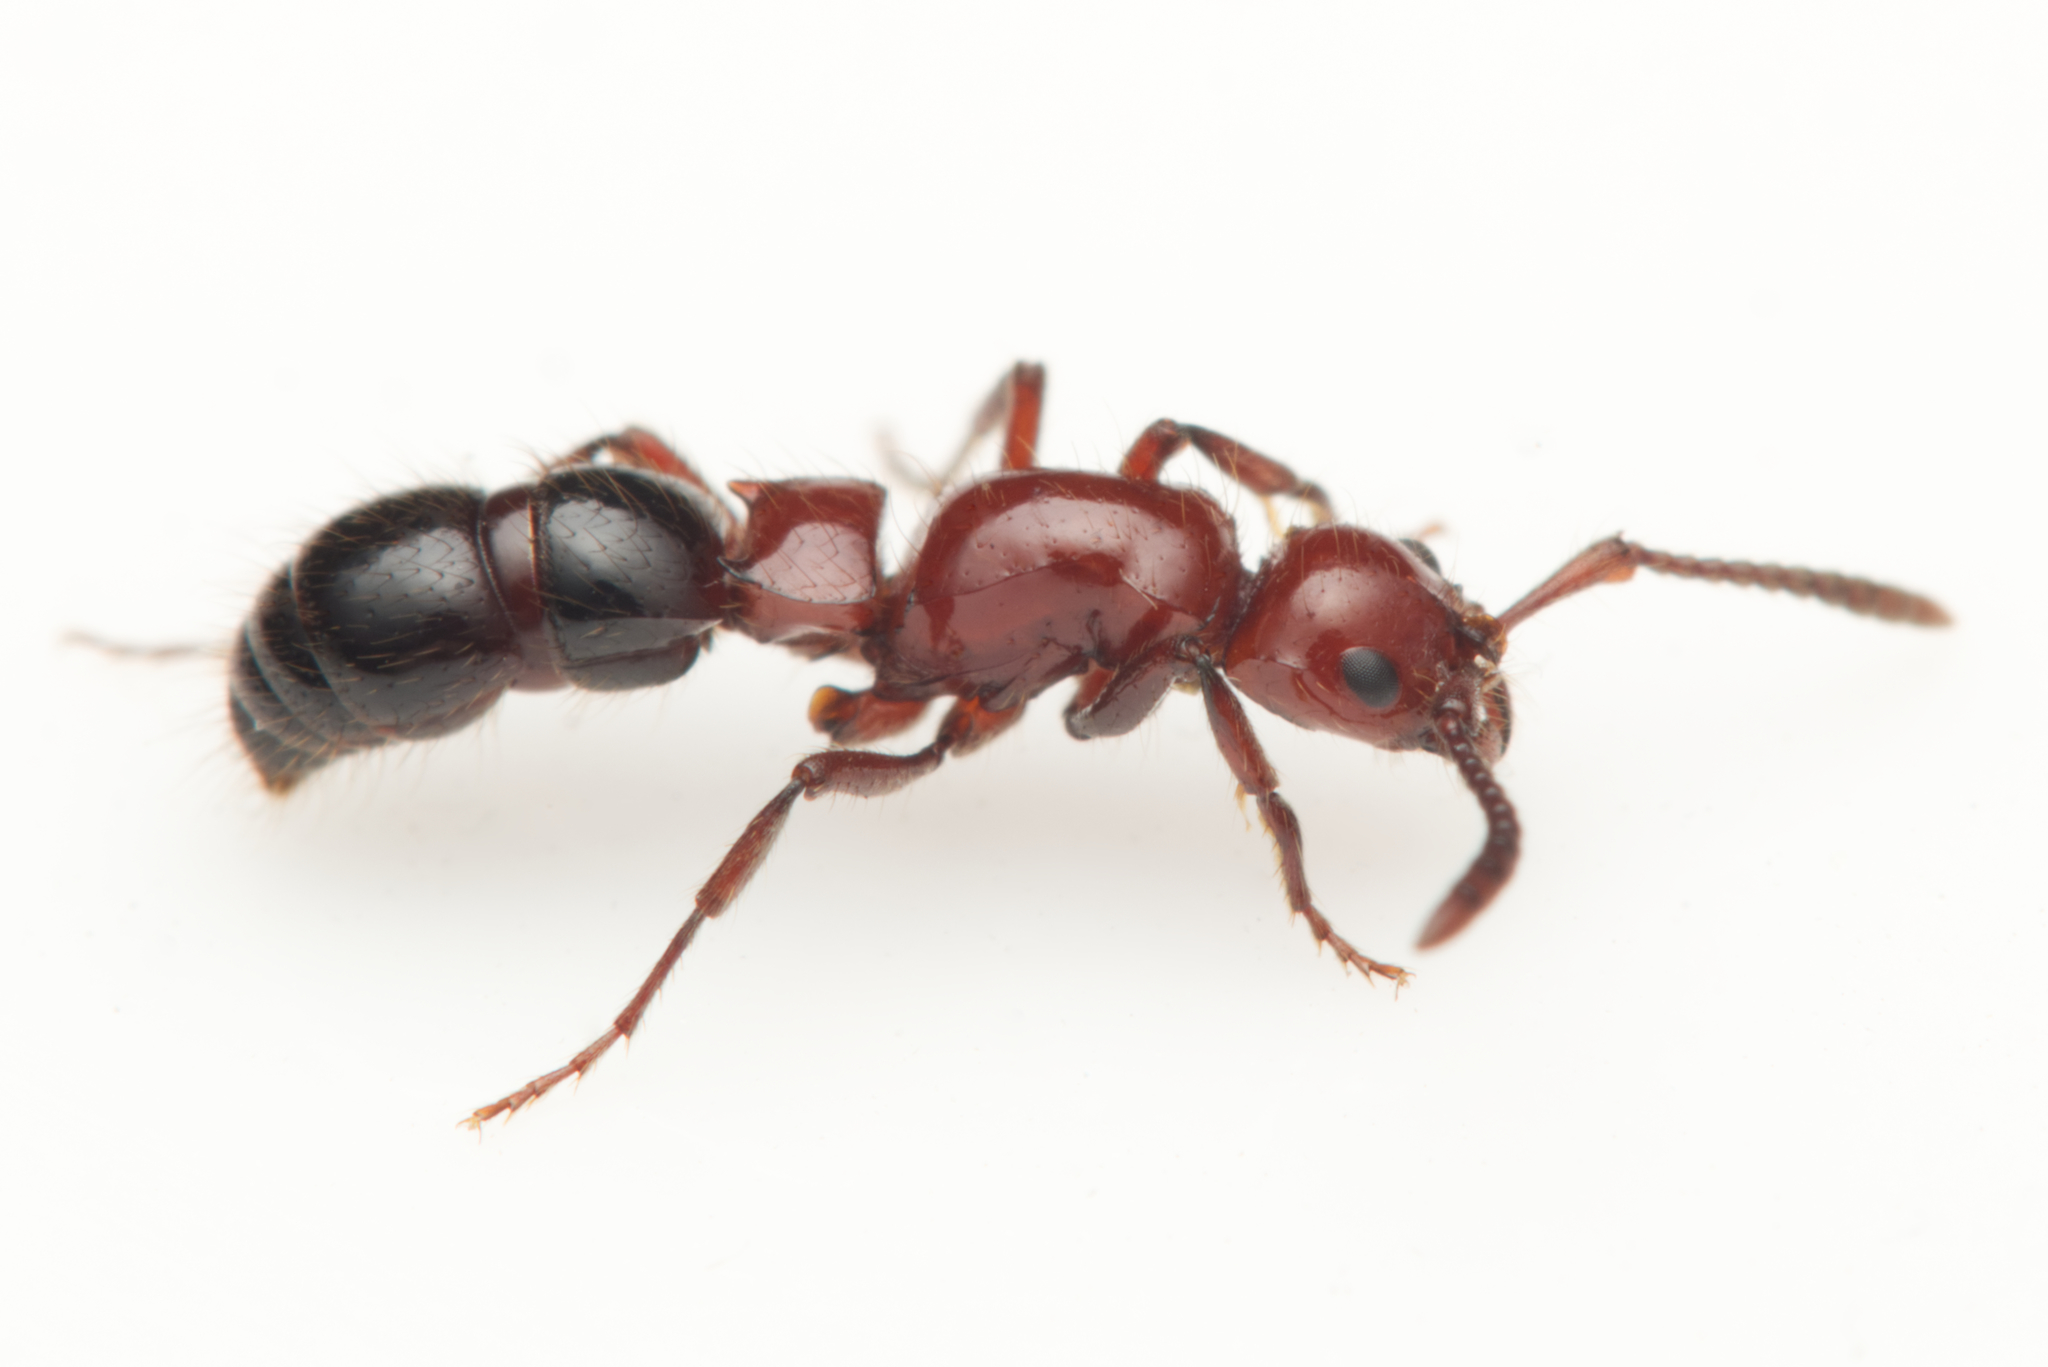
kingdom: Animalia
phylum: Arthropoda
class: Insecta
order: Hymenoptera
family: Formicidae
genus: Lioponera
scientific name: Lioponera
